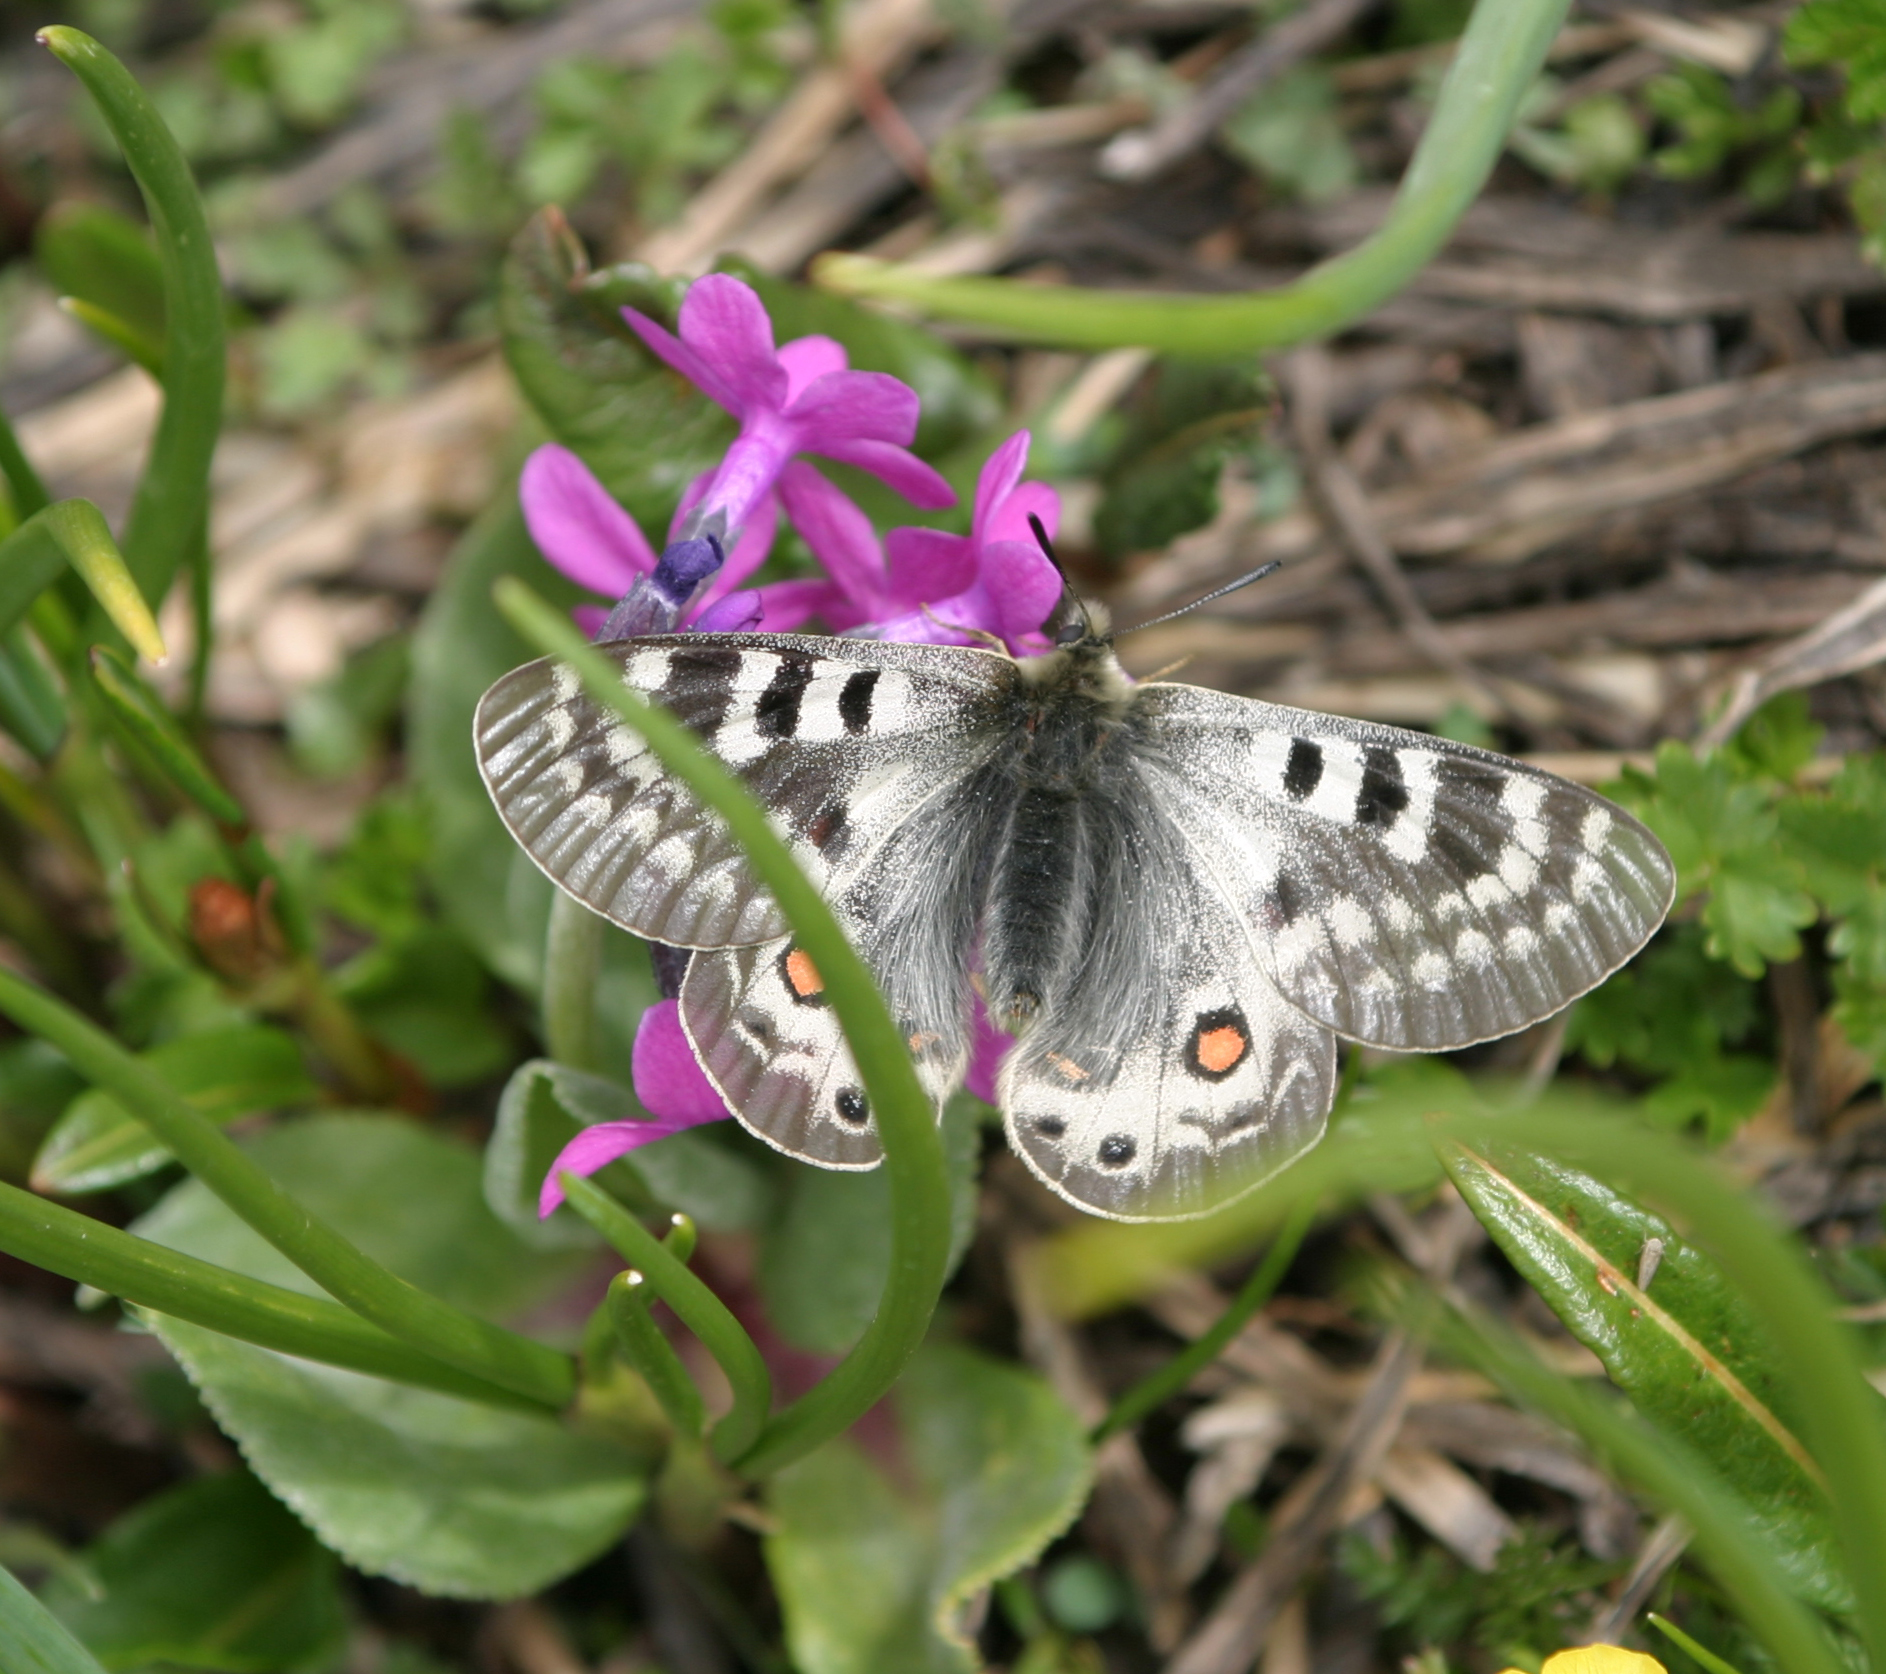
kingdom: Animalia
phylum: Arthropoda
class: Insecta
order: Lepidoptera
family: Papilionidae
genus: Parnassius
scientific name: Parnassius delphius
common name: Banded apollo
